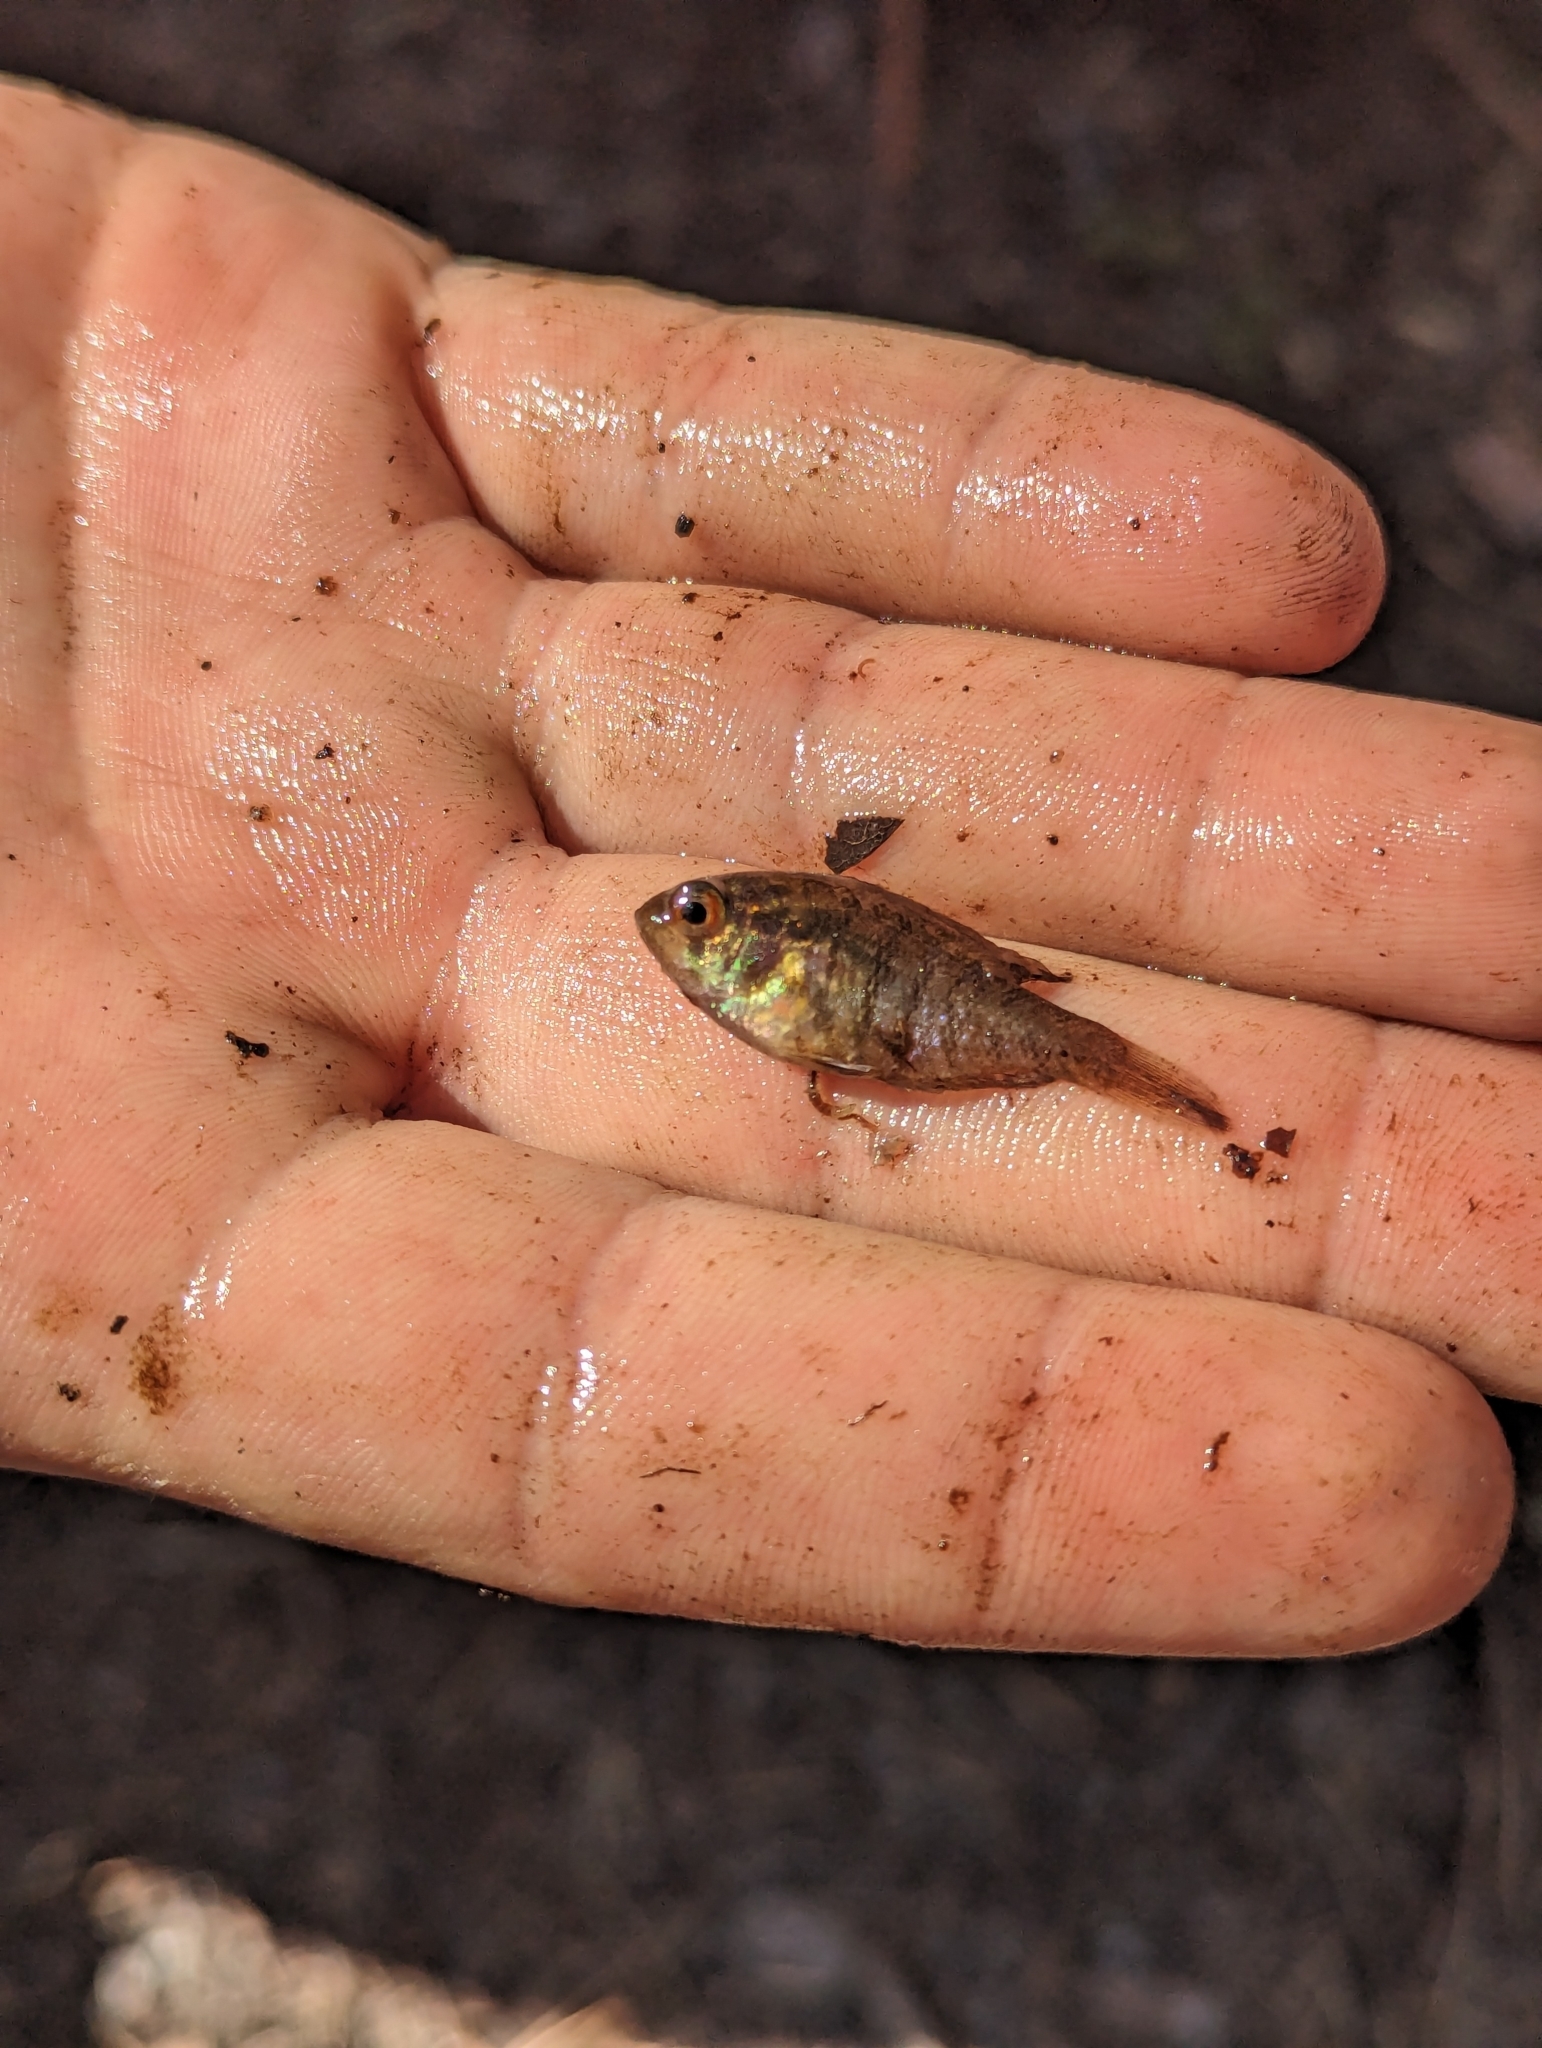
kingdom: Animalia
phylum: Chordata
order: Perciformes
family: Centrarchidae
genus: Enneacanthus
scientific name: Enneacanthus obesus
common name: Banded sunfish
